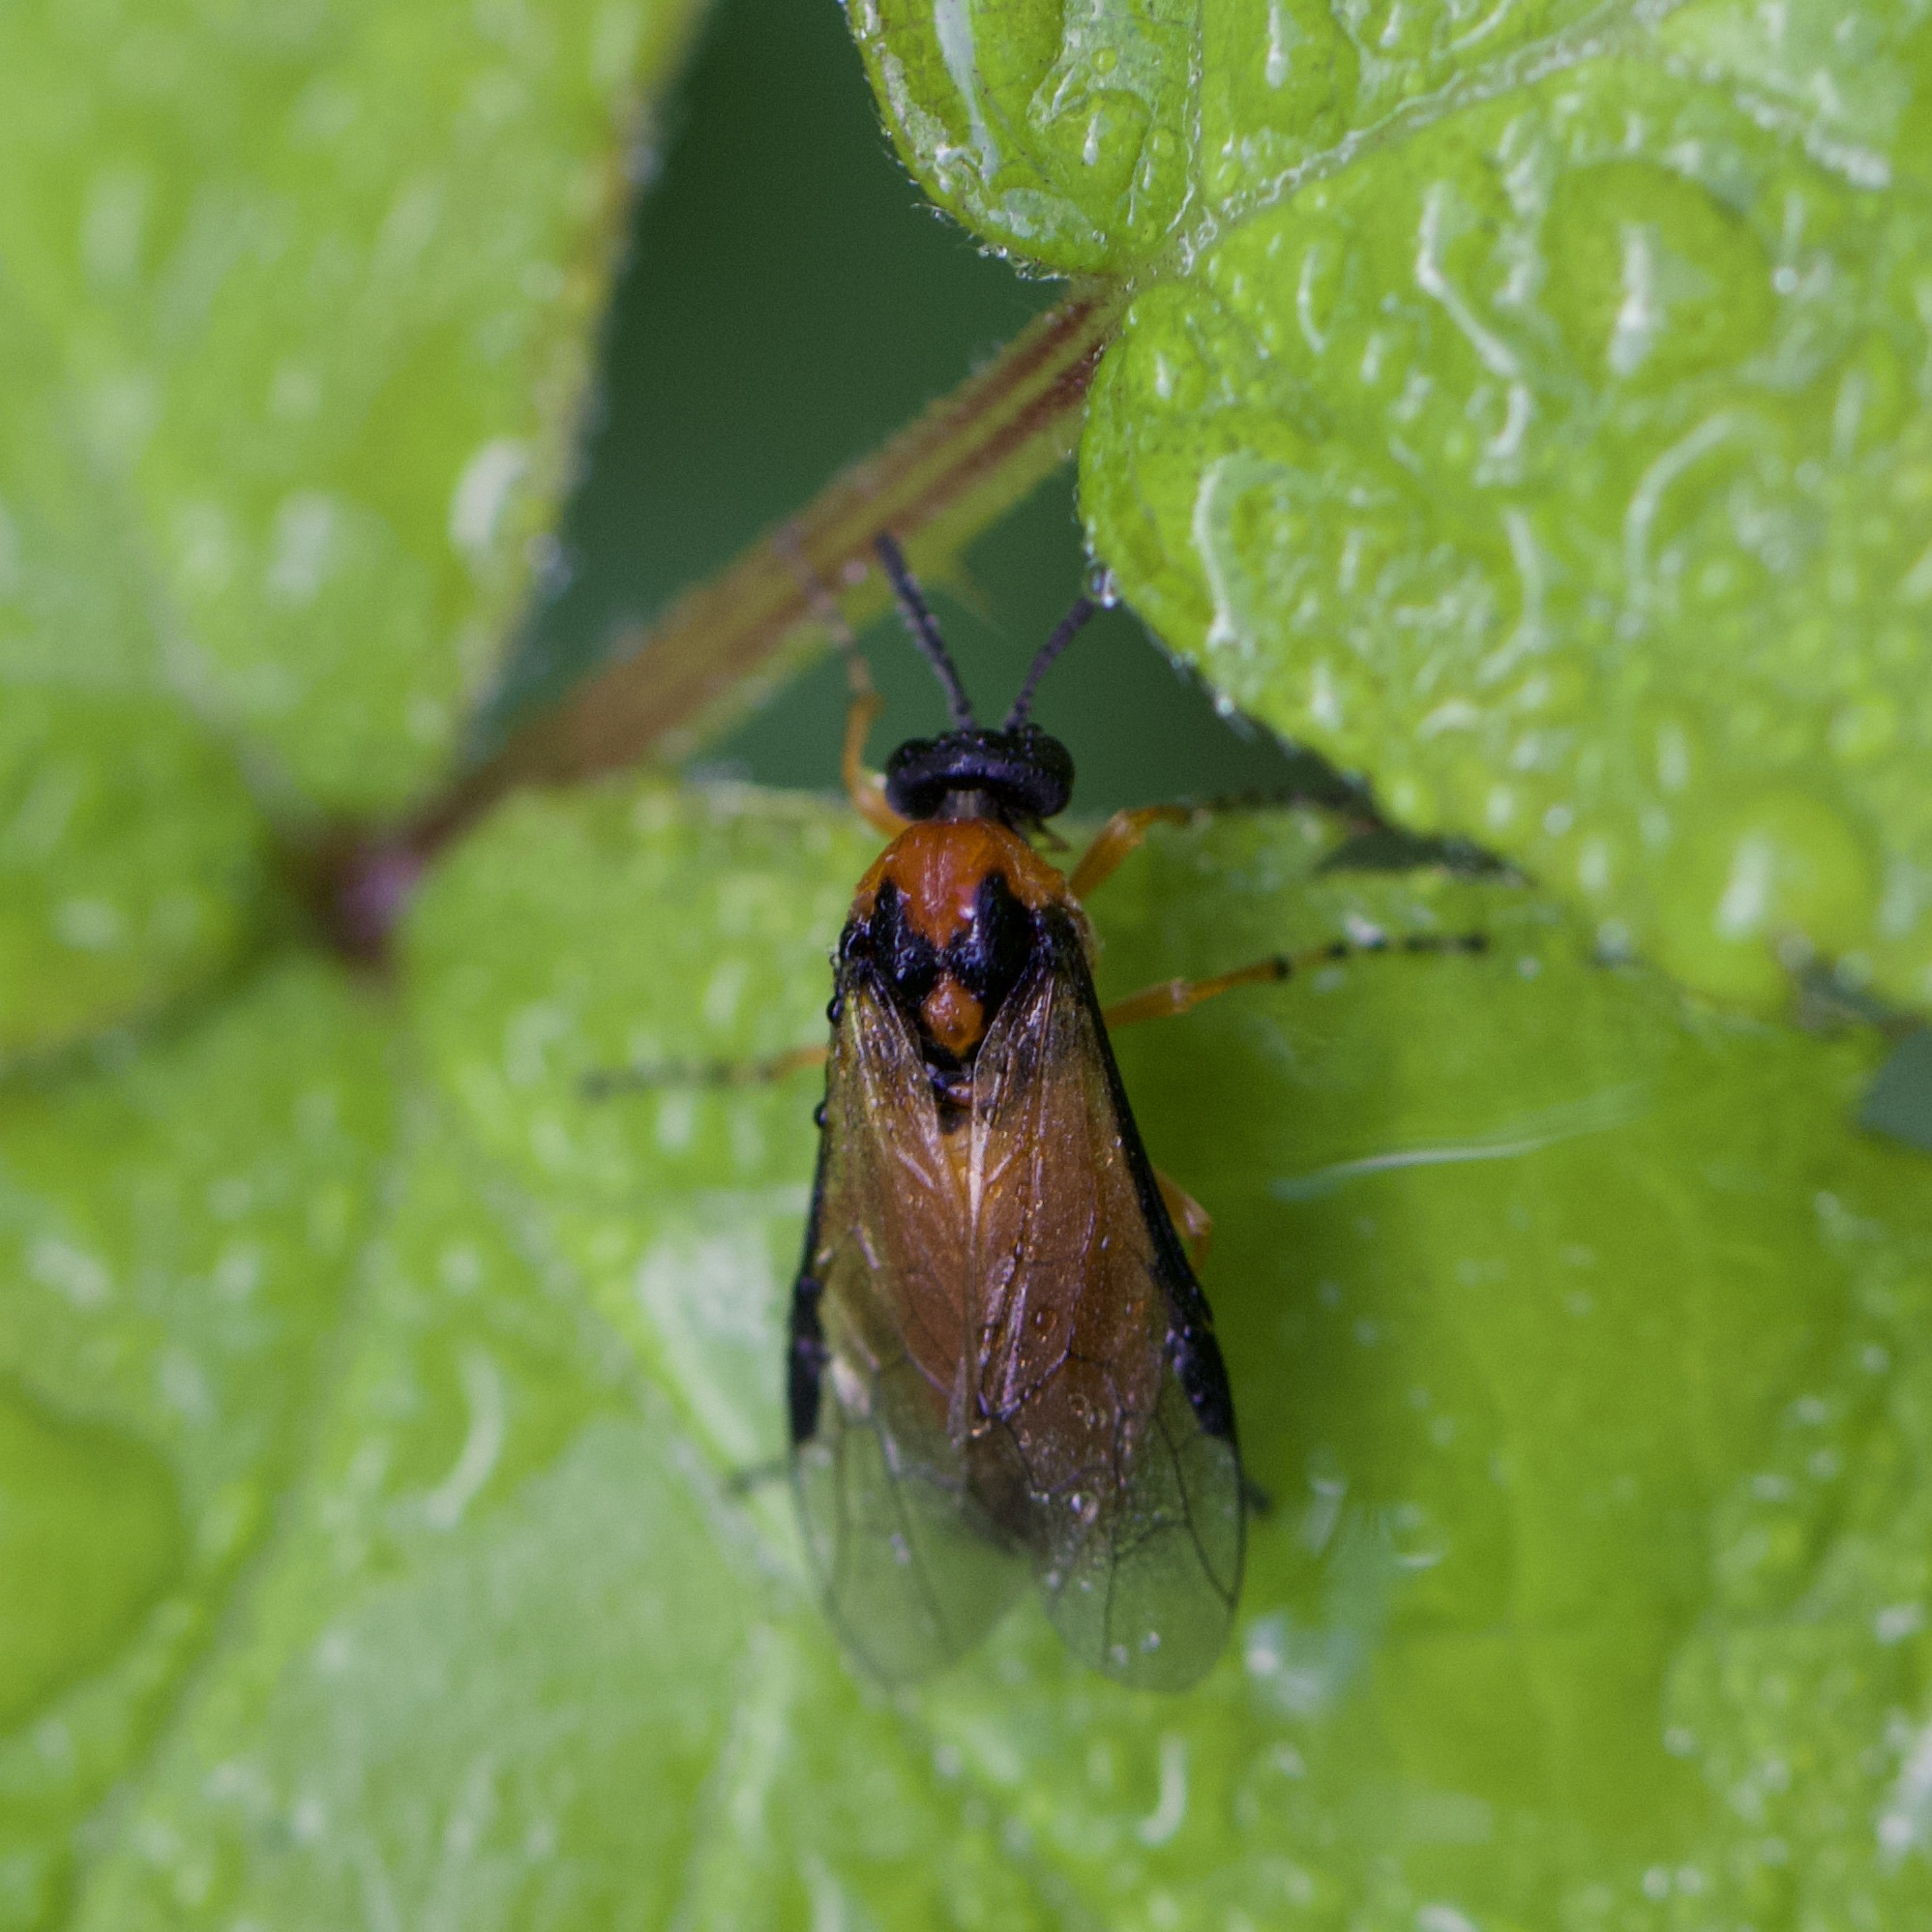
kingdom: Animalia
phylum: Arthropoda
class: Insecta
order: Hymenoptera
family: Tenthredinidae
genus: Athalia
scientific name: Athalia rosae
